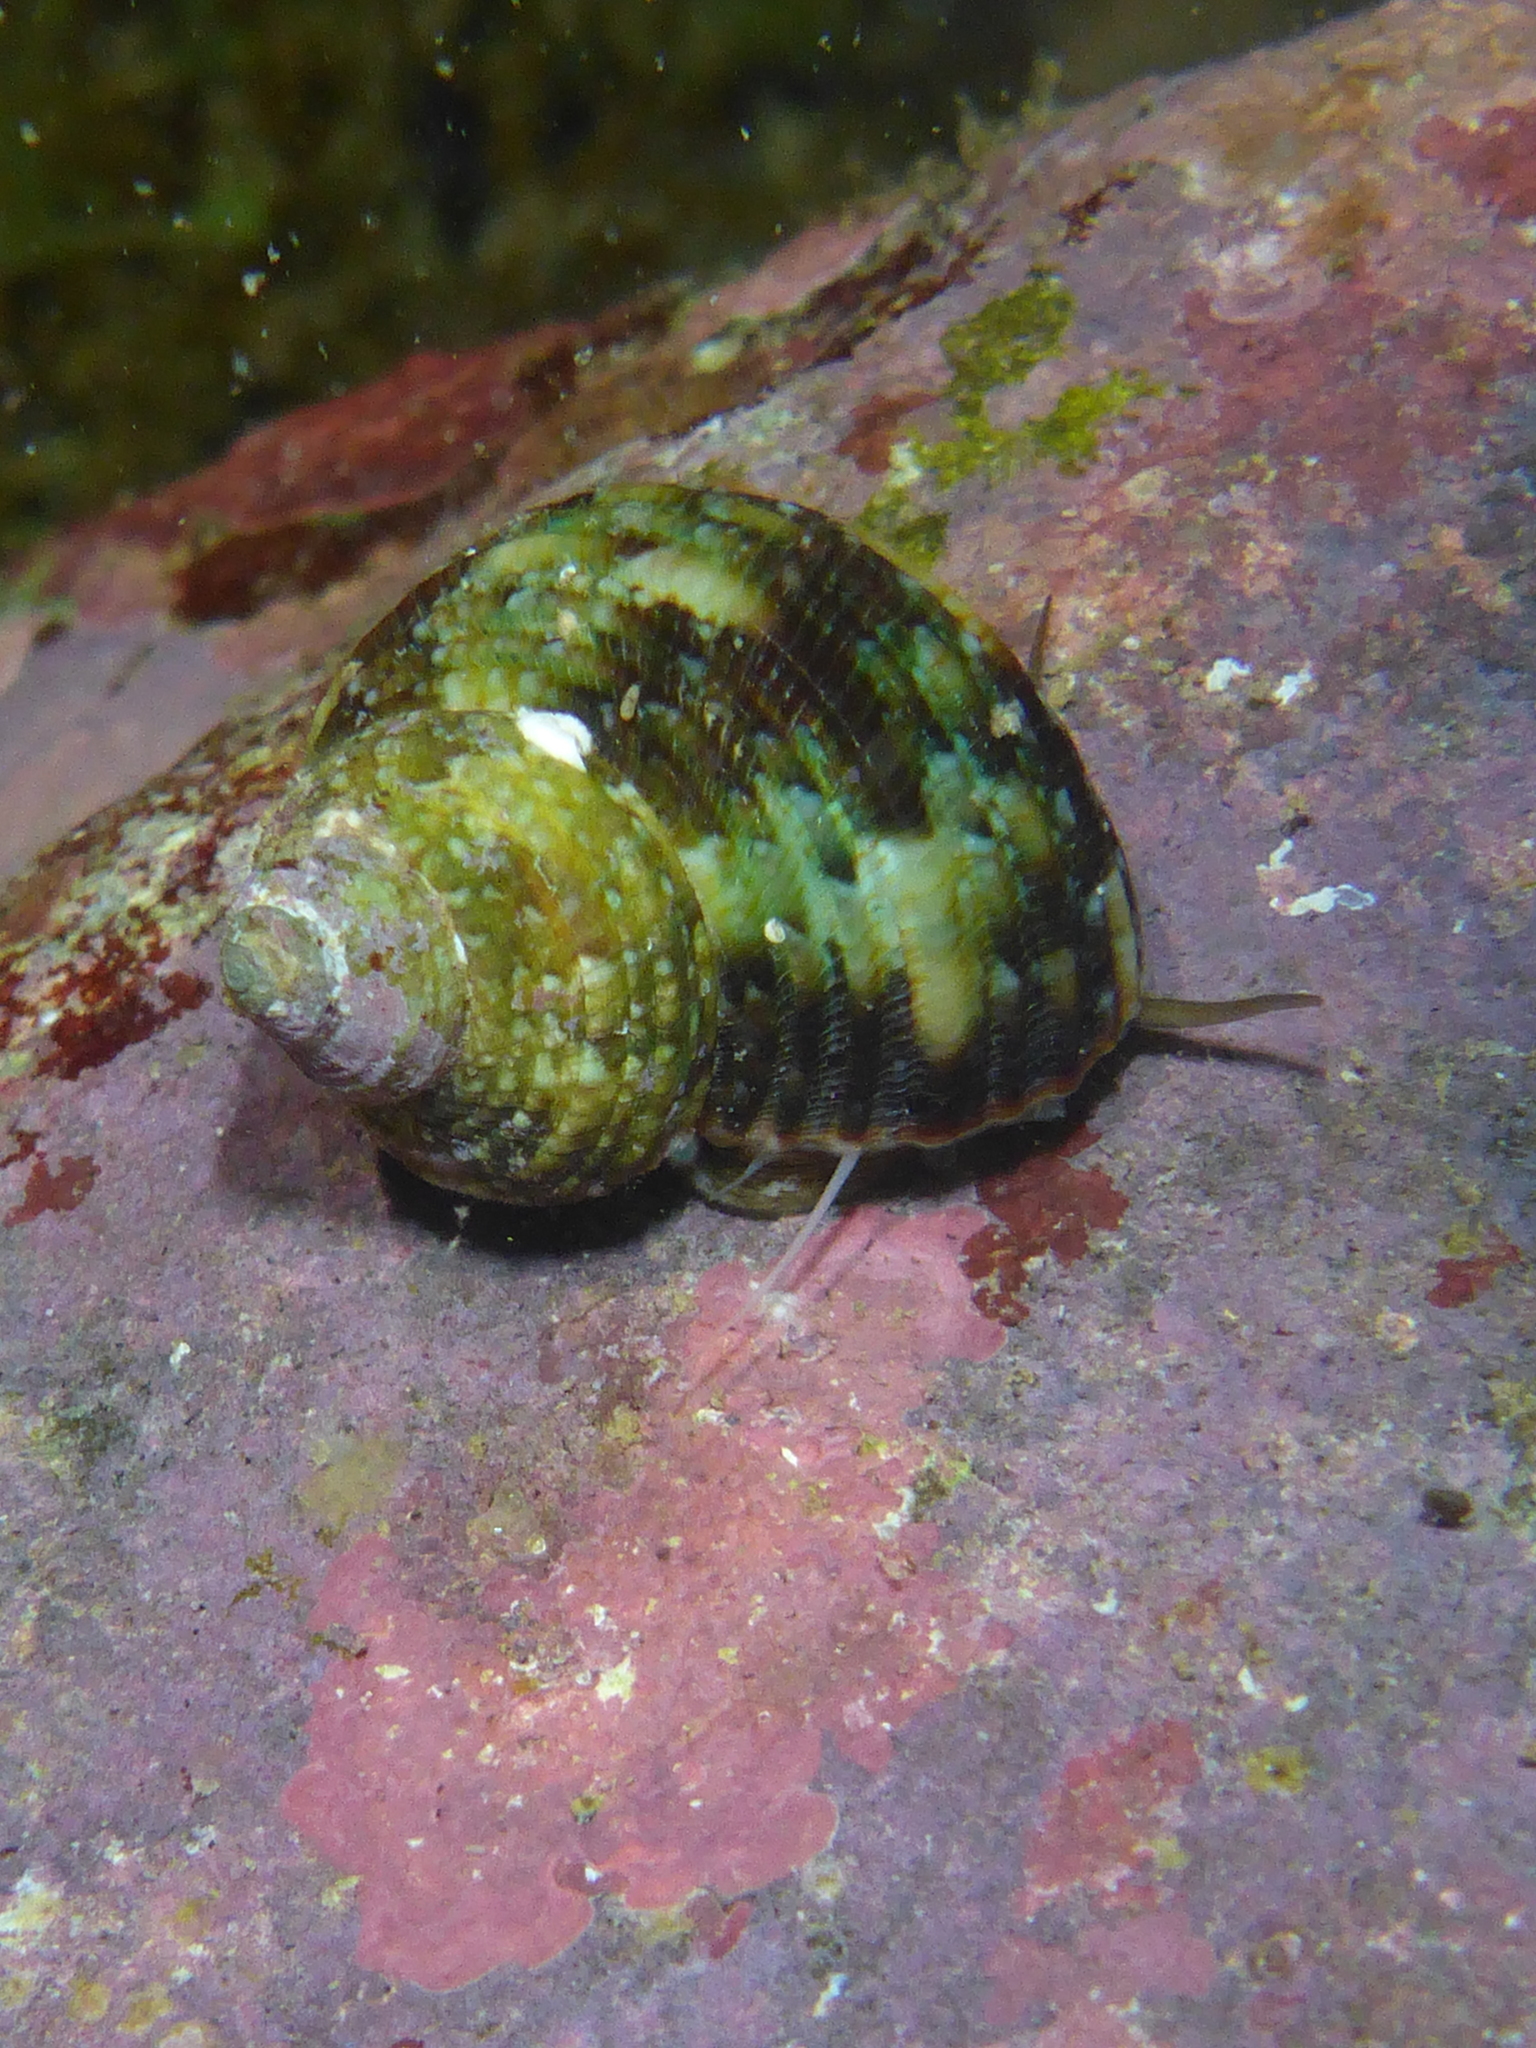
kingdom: Animalia
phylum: Mollusca
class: Gastropoda
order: Trochida
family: Turbinidae
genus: Turbo
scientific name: Turbo sandwicensis
